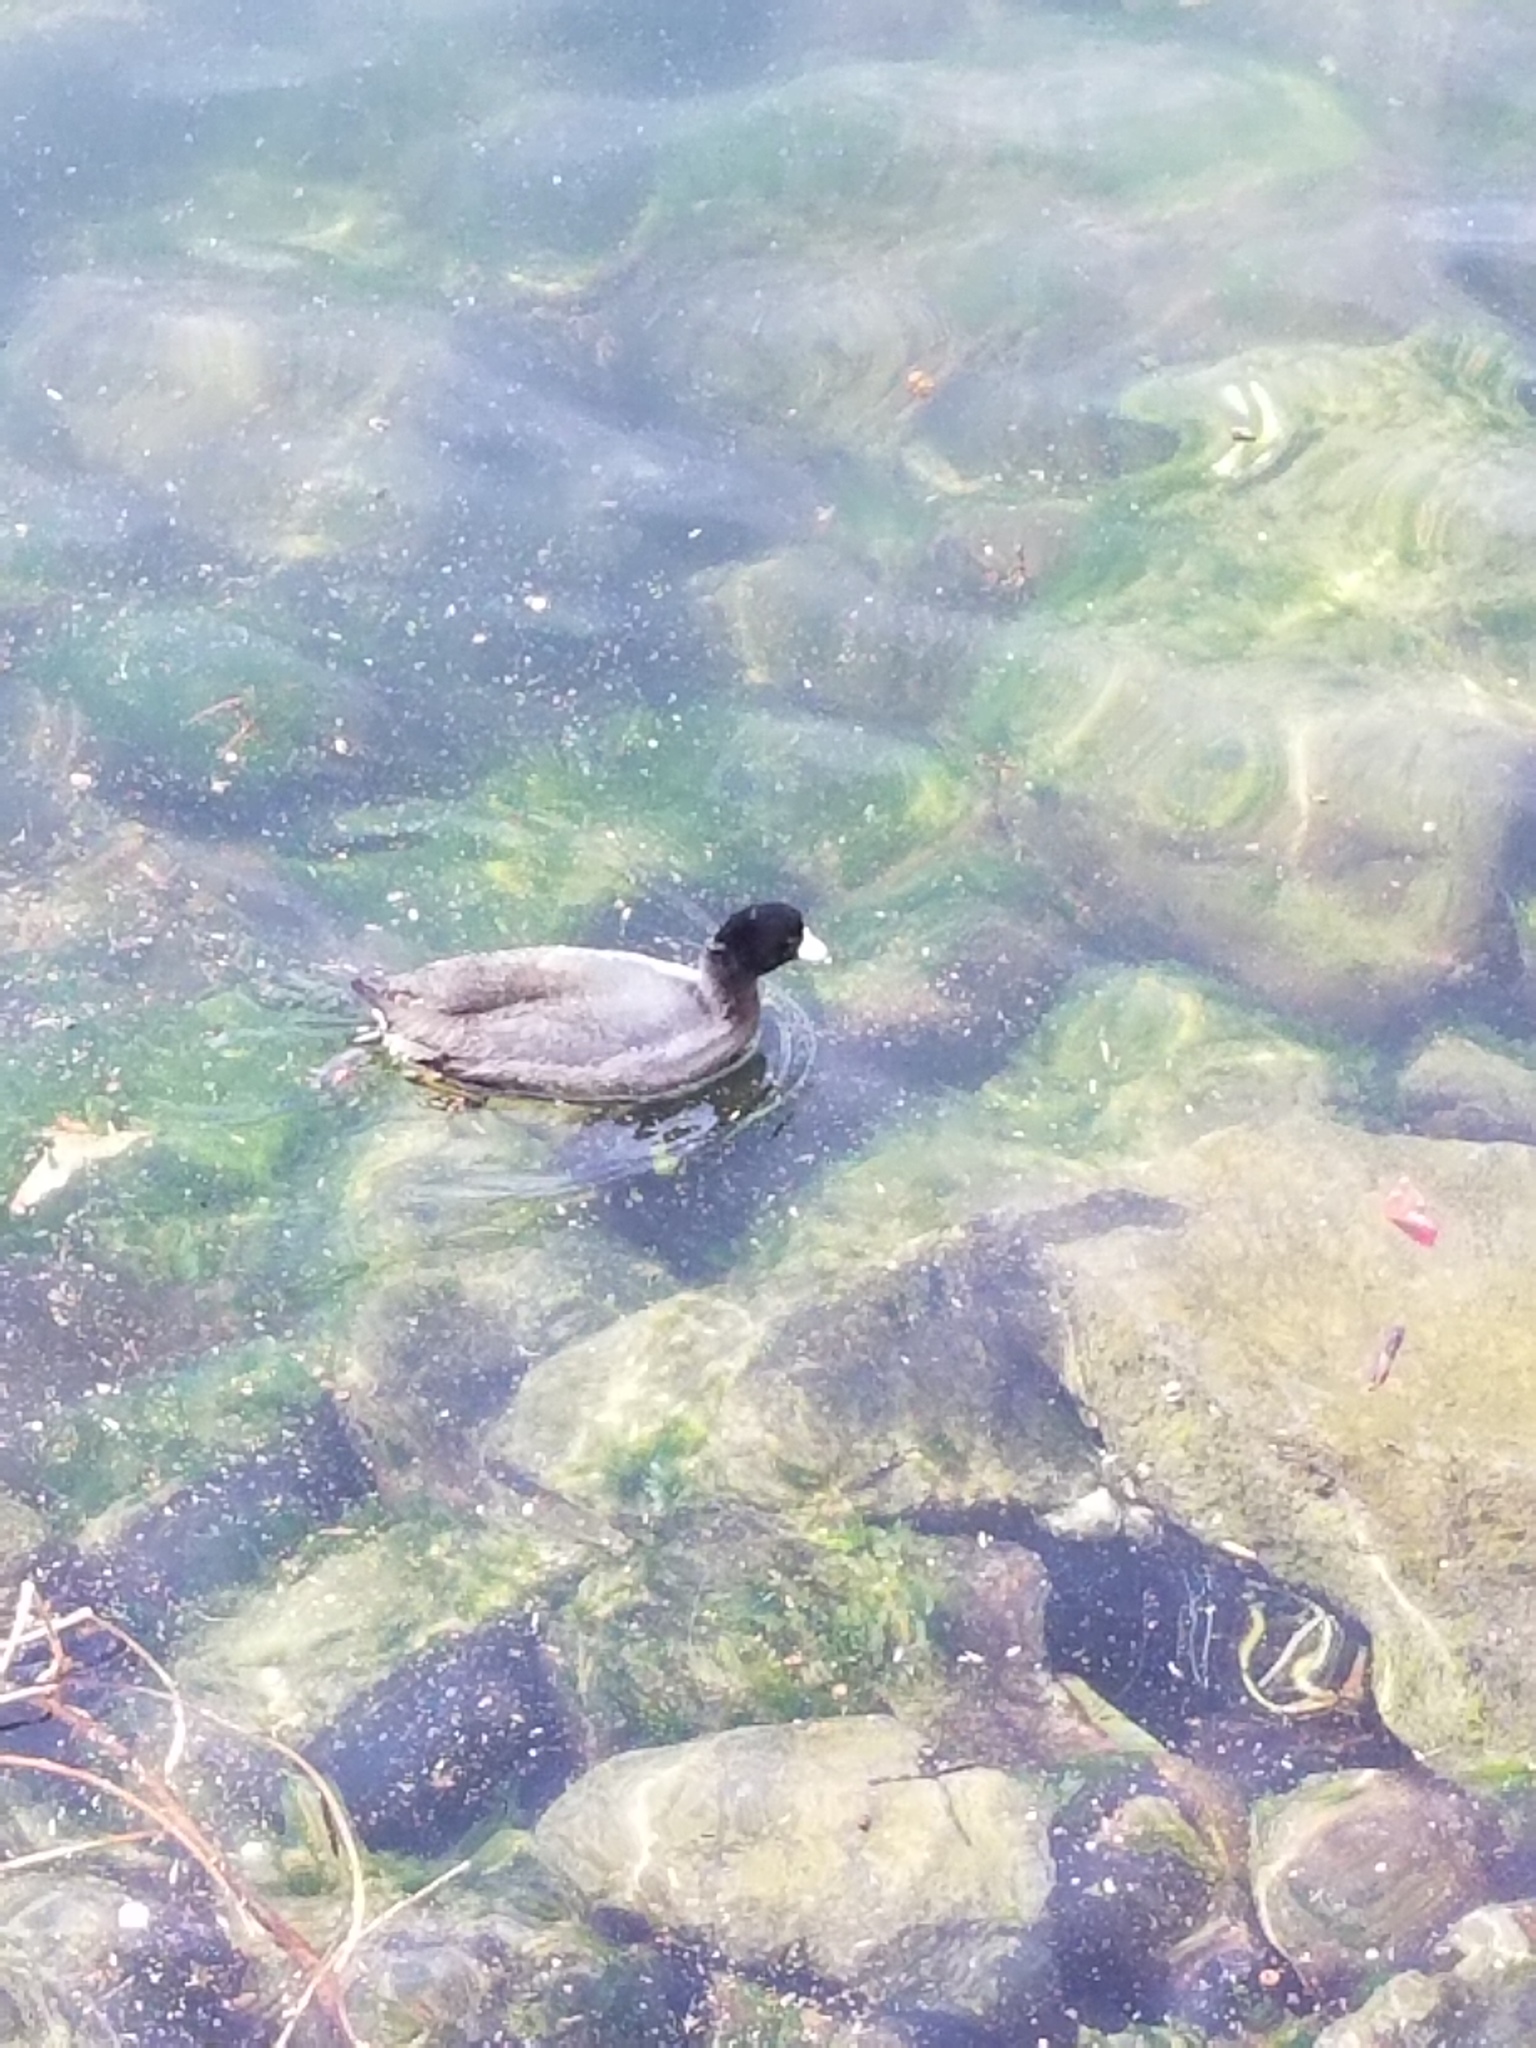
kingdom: Animalia
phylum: Chordata
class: Aves
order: Gruiformes
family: Rallidae
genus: Fulica
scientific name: Fulica americana
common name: American coot
